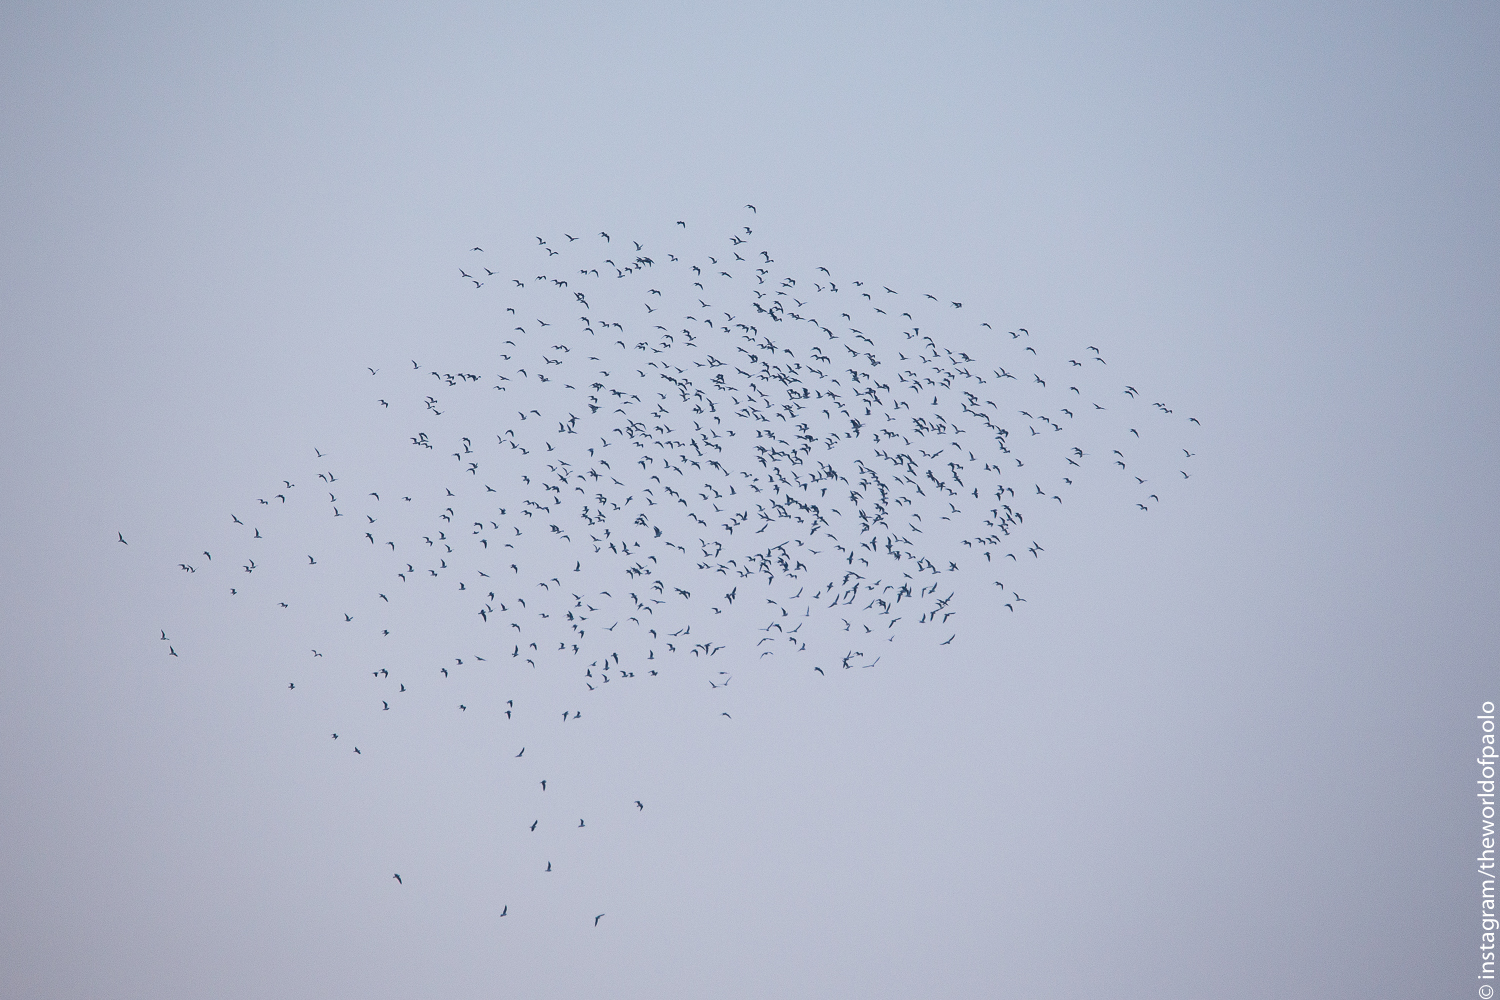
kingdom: Animalia
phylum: Chordata
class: Aves
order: Charadriiformes
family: Laridae
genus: Chroicocephalus
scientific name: Chroicocephalus ridibundus
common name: Black-headed gull
